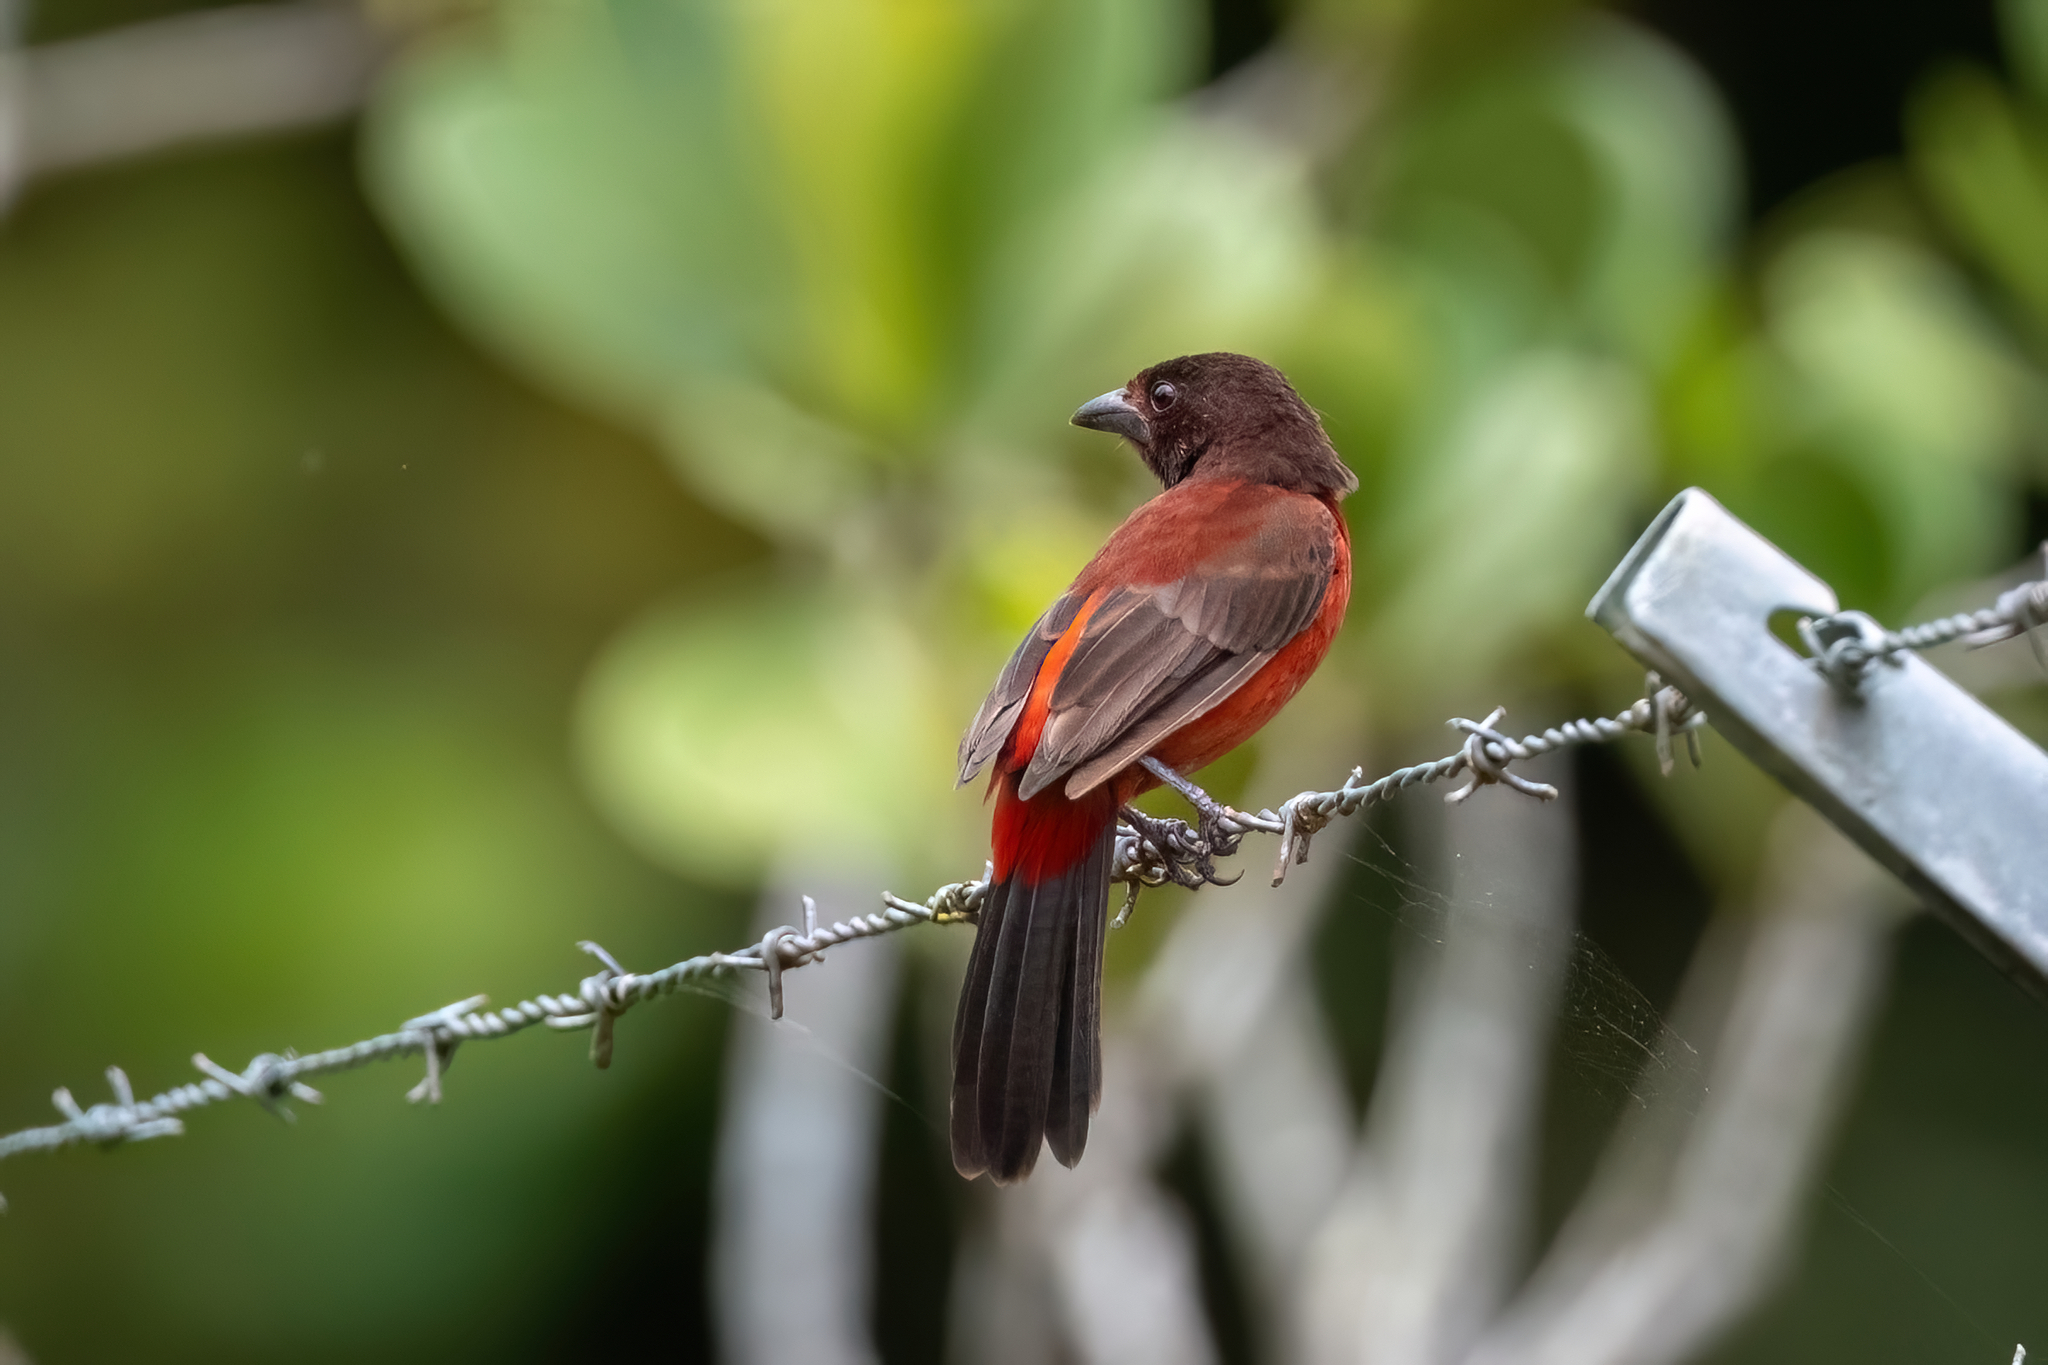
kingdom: Animalia
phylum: Chordata
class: Aves
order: Passeriformes
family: Thraupidae
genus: Ramphocelus
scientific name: Ramphocelus dimidiatus
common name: Crimson-backed tanager
